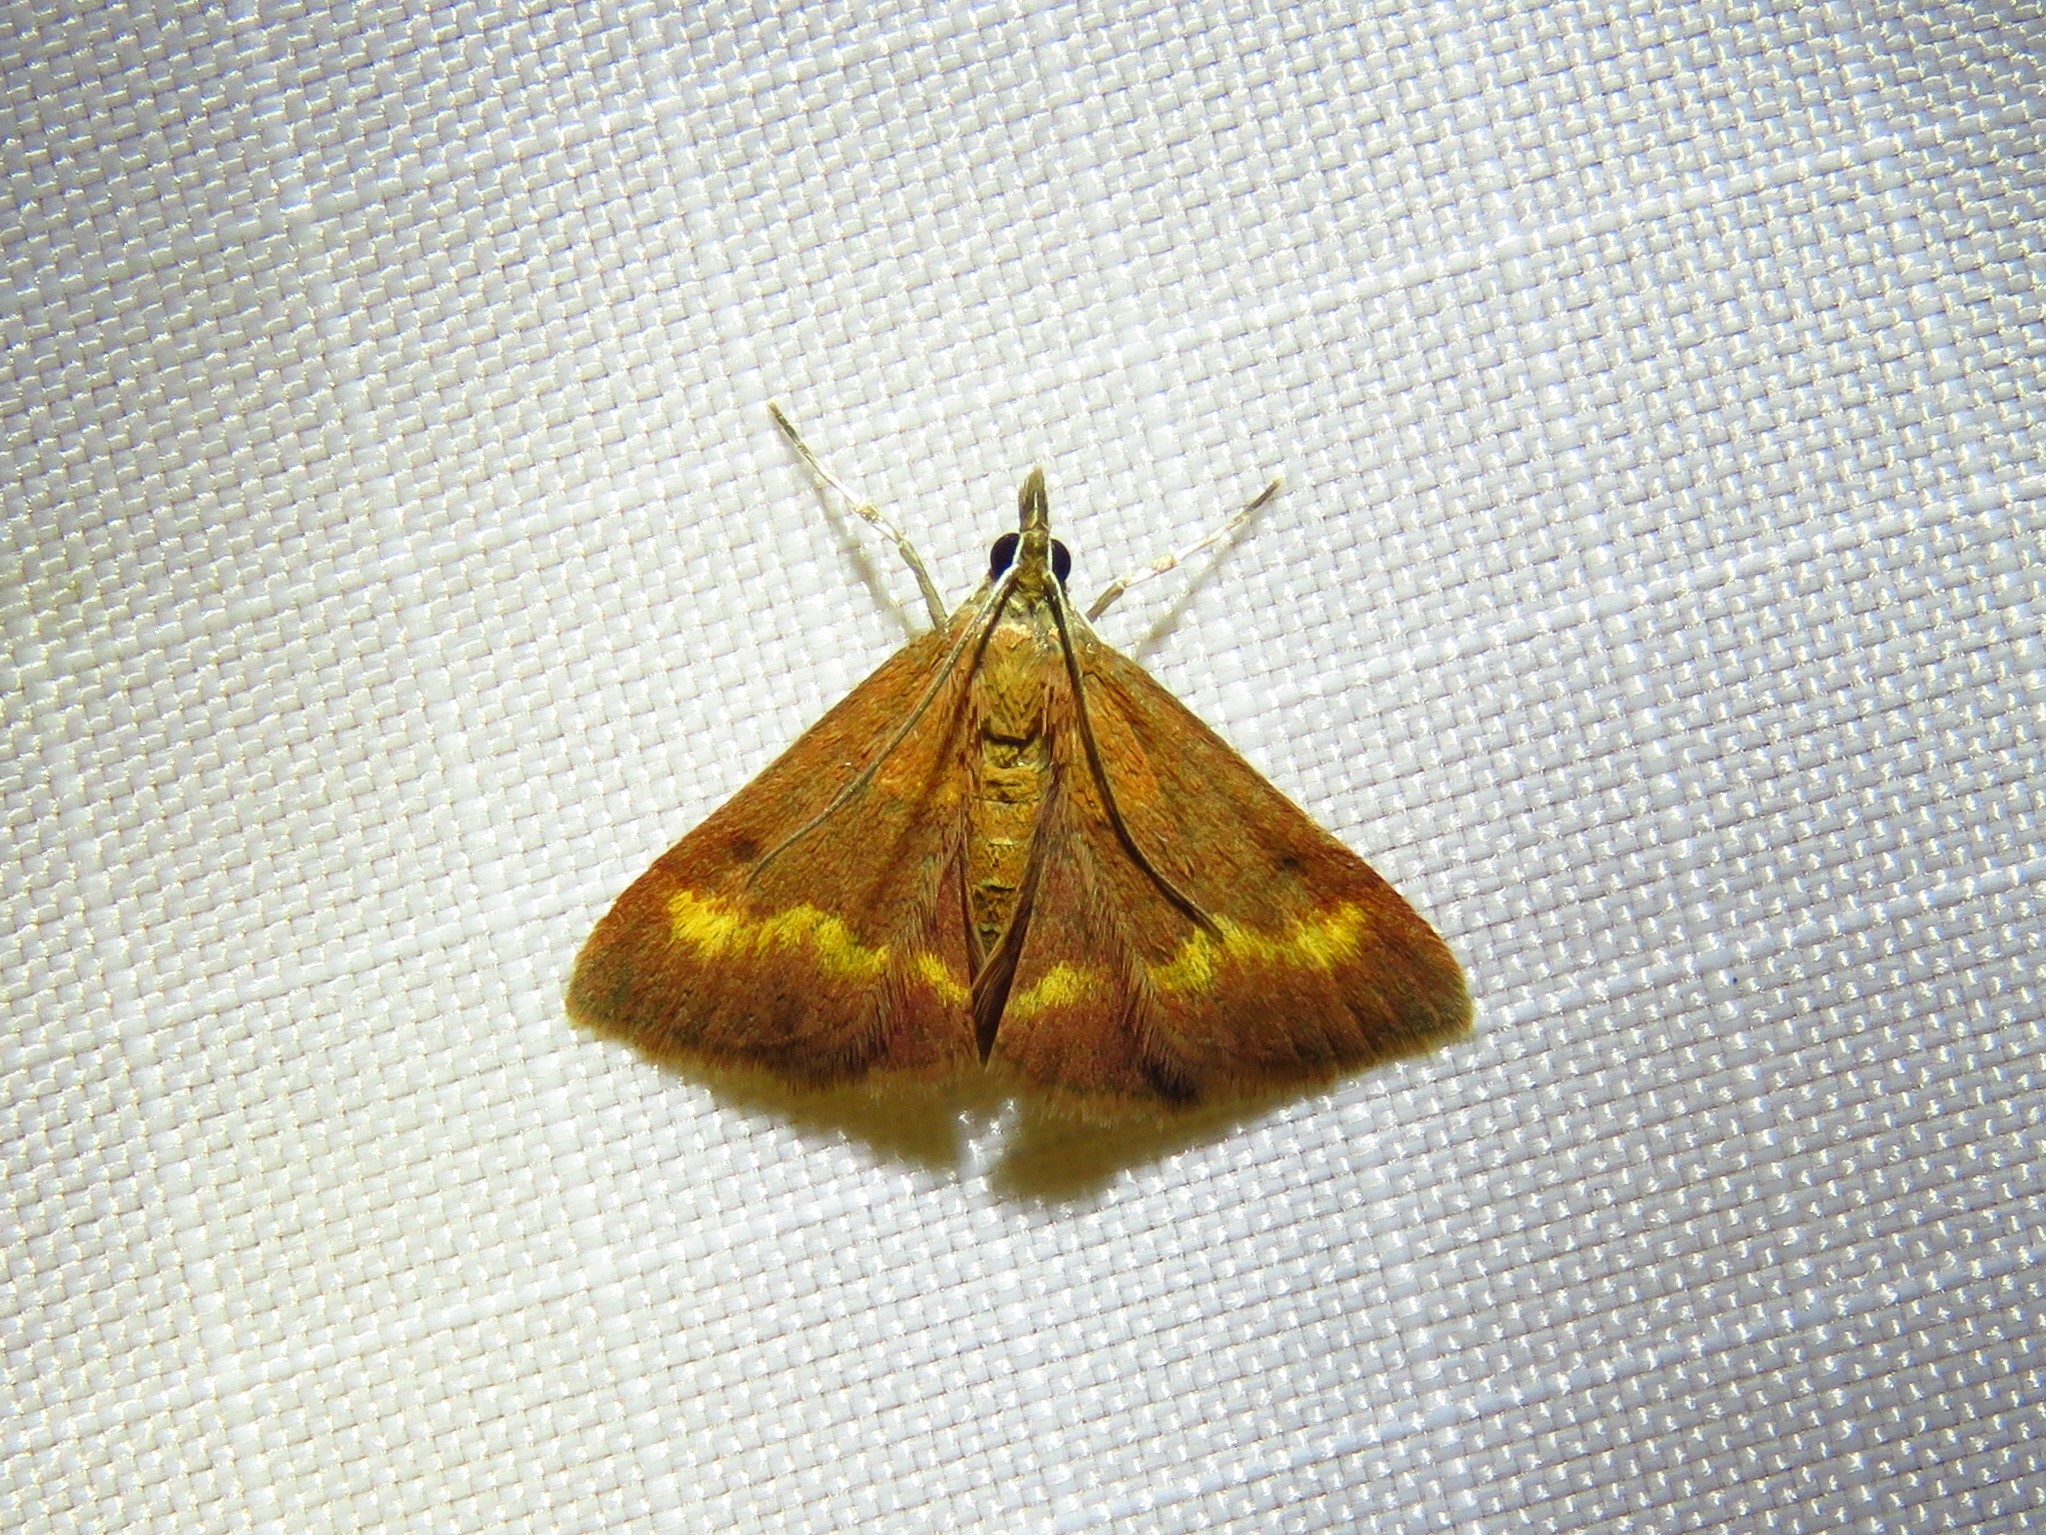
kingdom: Animalia
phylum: Arthropoda
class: Insecta
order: Lepidoptera
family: Crambidae
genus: Pyrausta
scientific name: Pyrausta pseuderosnealis
